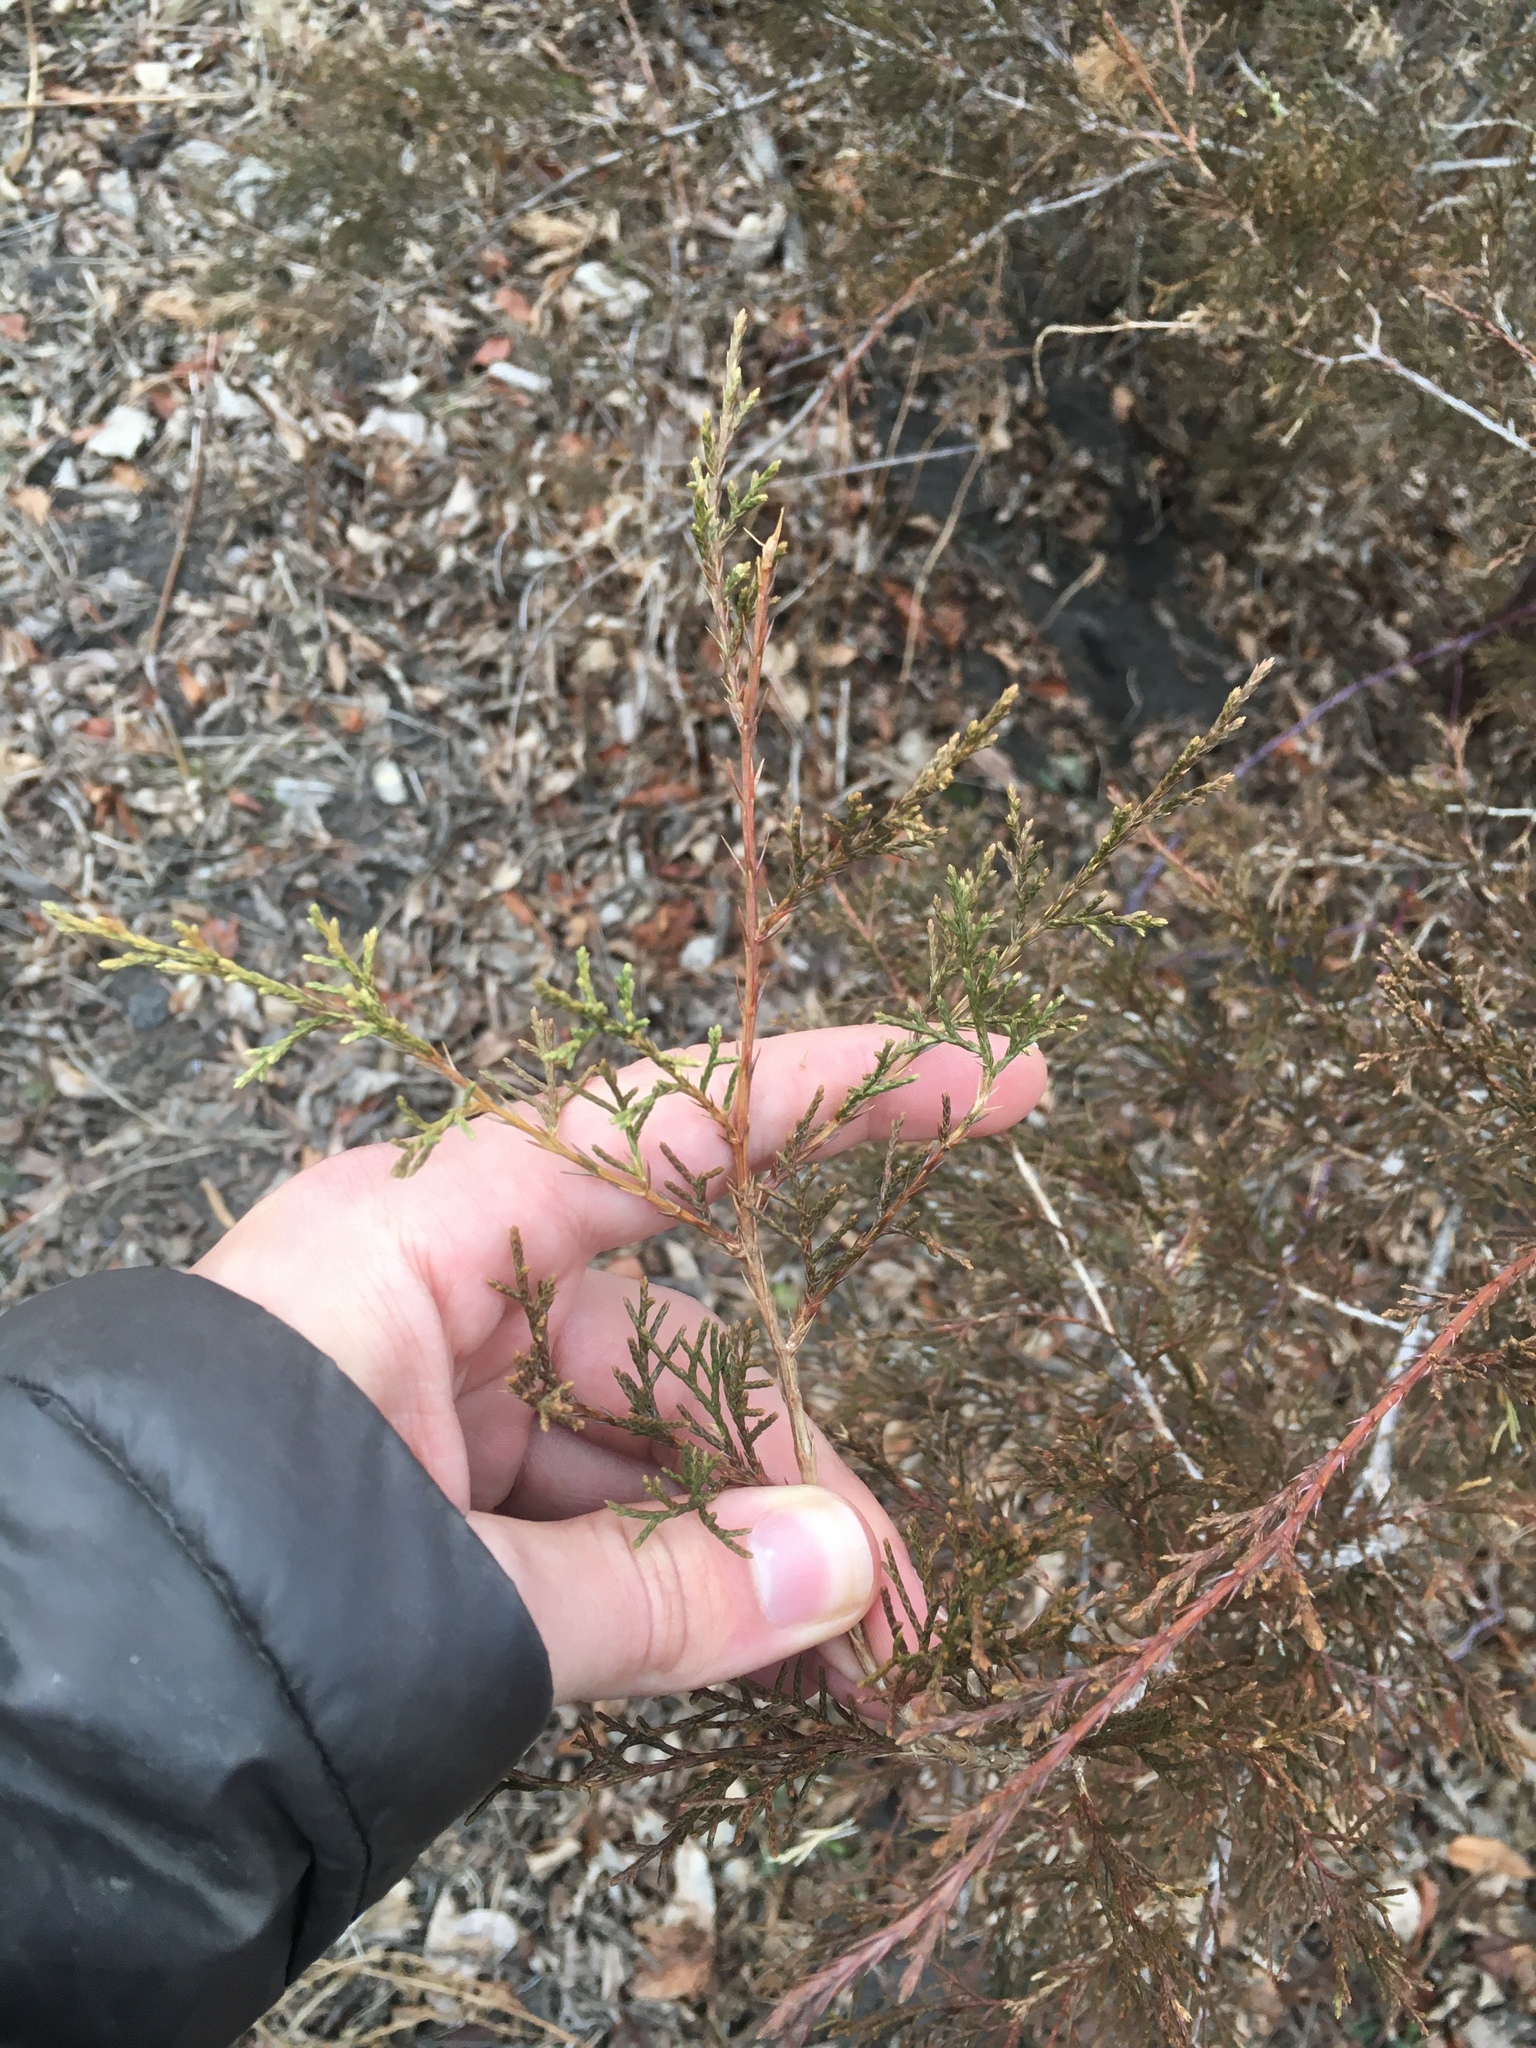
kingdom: Plantae
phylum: Tracheophyta
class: Pinopsida
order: Pinales
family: Cupressaceae
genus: Juniperus
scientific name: Juniperus virginiana
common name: Red juniper
